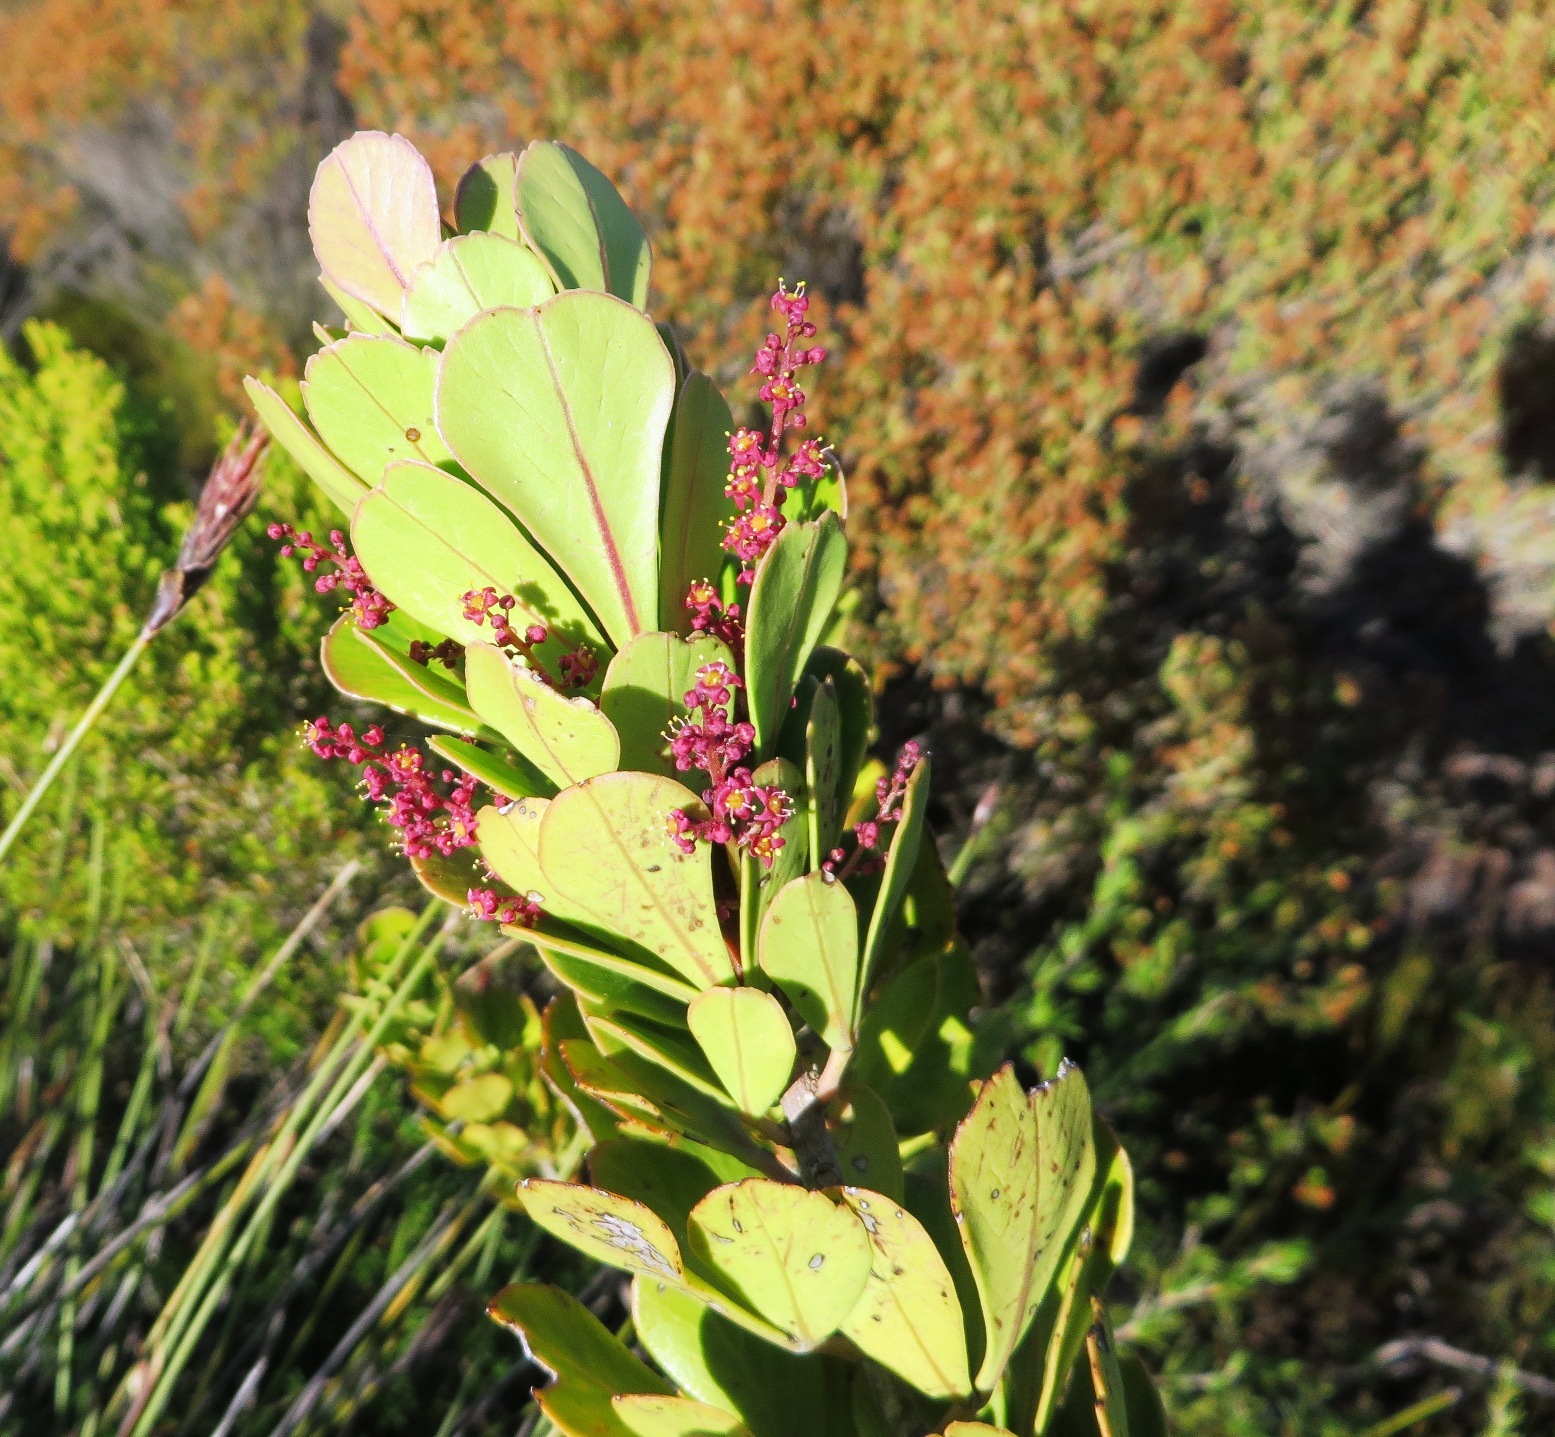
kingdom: Plantae
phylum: Tracheophyta
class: Magnoliopsida
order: Sapindales
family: Anacardiaceae
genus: Searsia
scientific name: Searsia scytophylla
